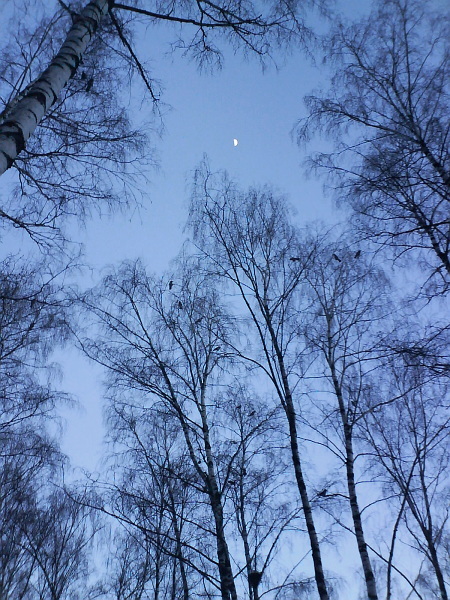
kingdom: Plantae
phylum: Tracheophyta
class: Magnoliopsida
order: Fagales
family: Betulaceae
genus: Betula
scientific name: Betula pendula
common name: Silver birch
